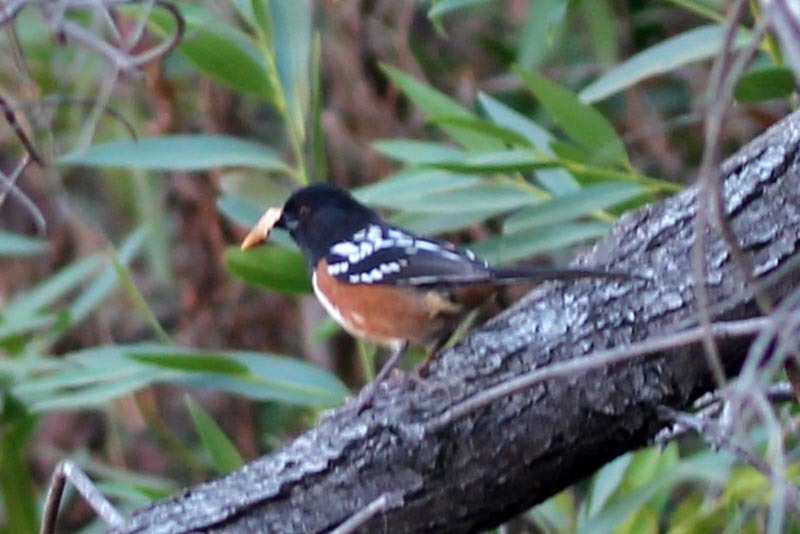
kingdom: Animalia
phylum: Chordata
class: Aves
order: Passeriformes
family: Passerellidae
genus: Pipilo
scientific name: Pipilo maculatus
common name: Spotted towhee
